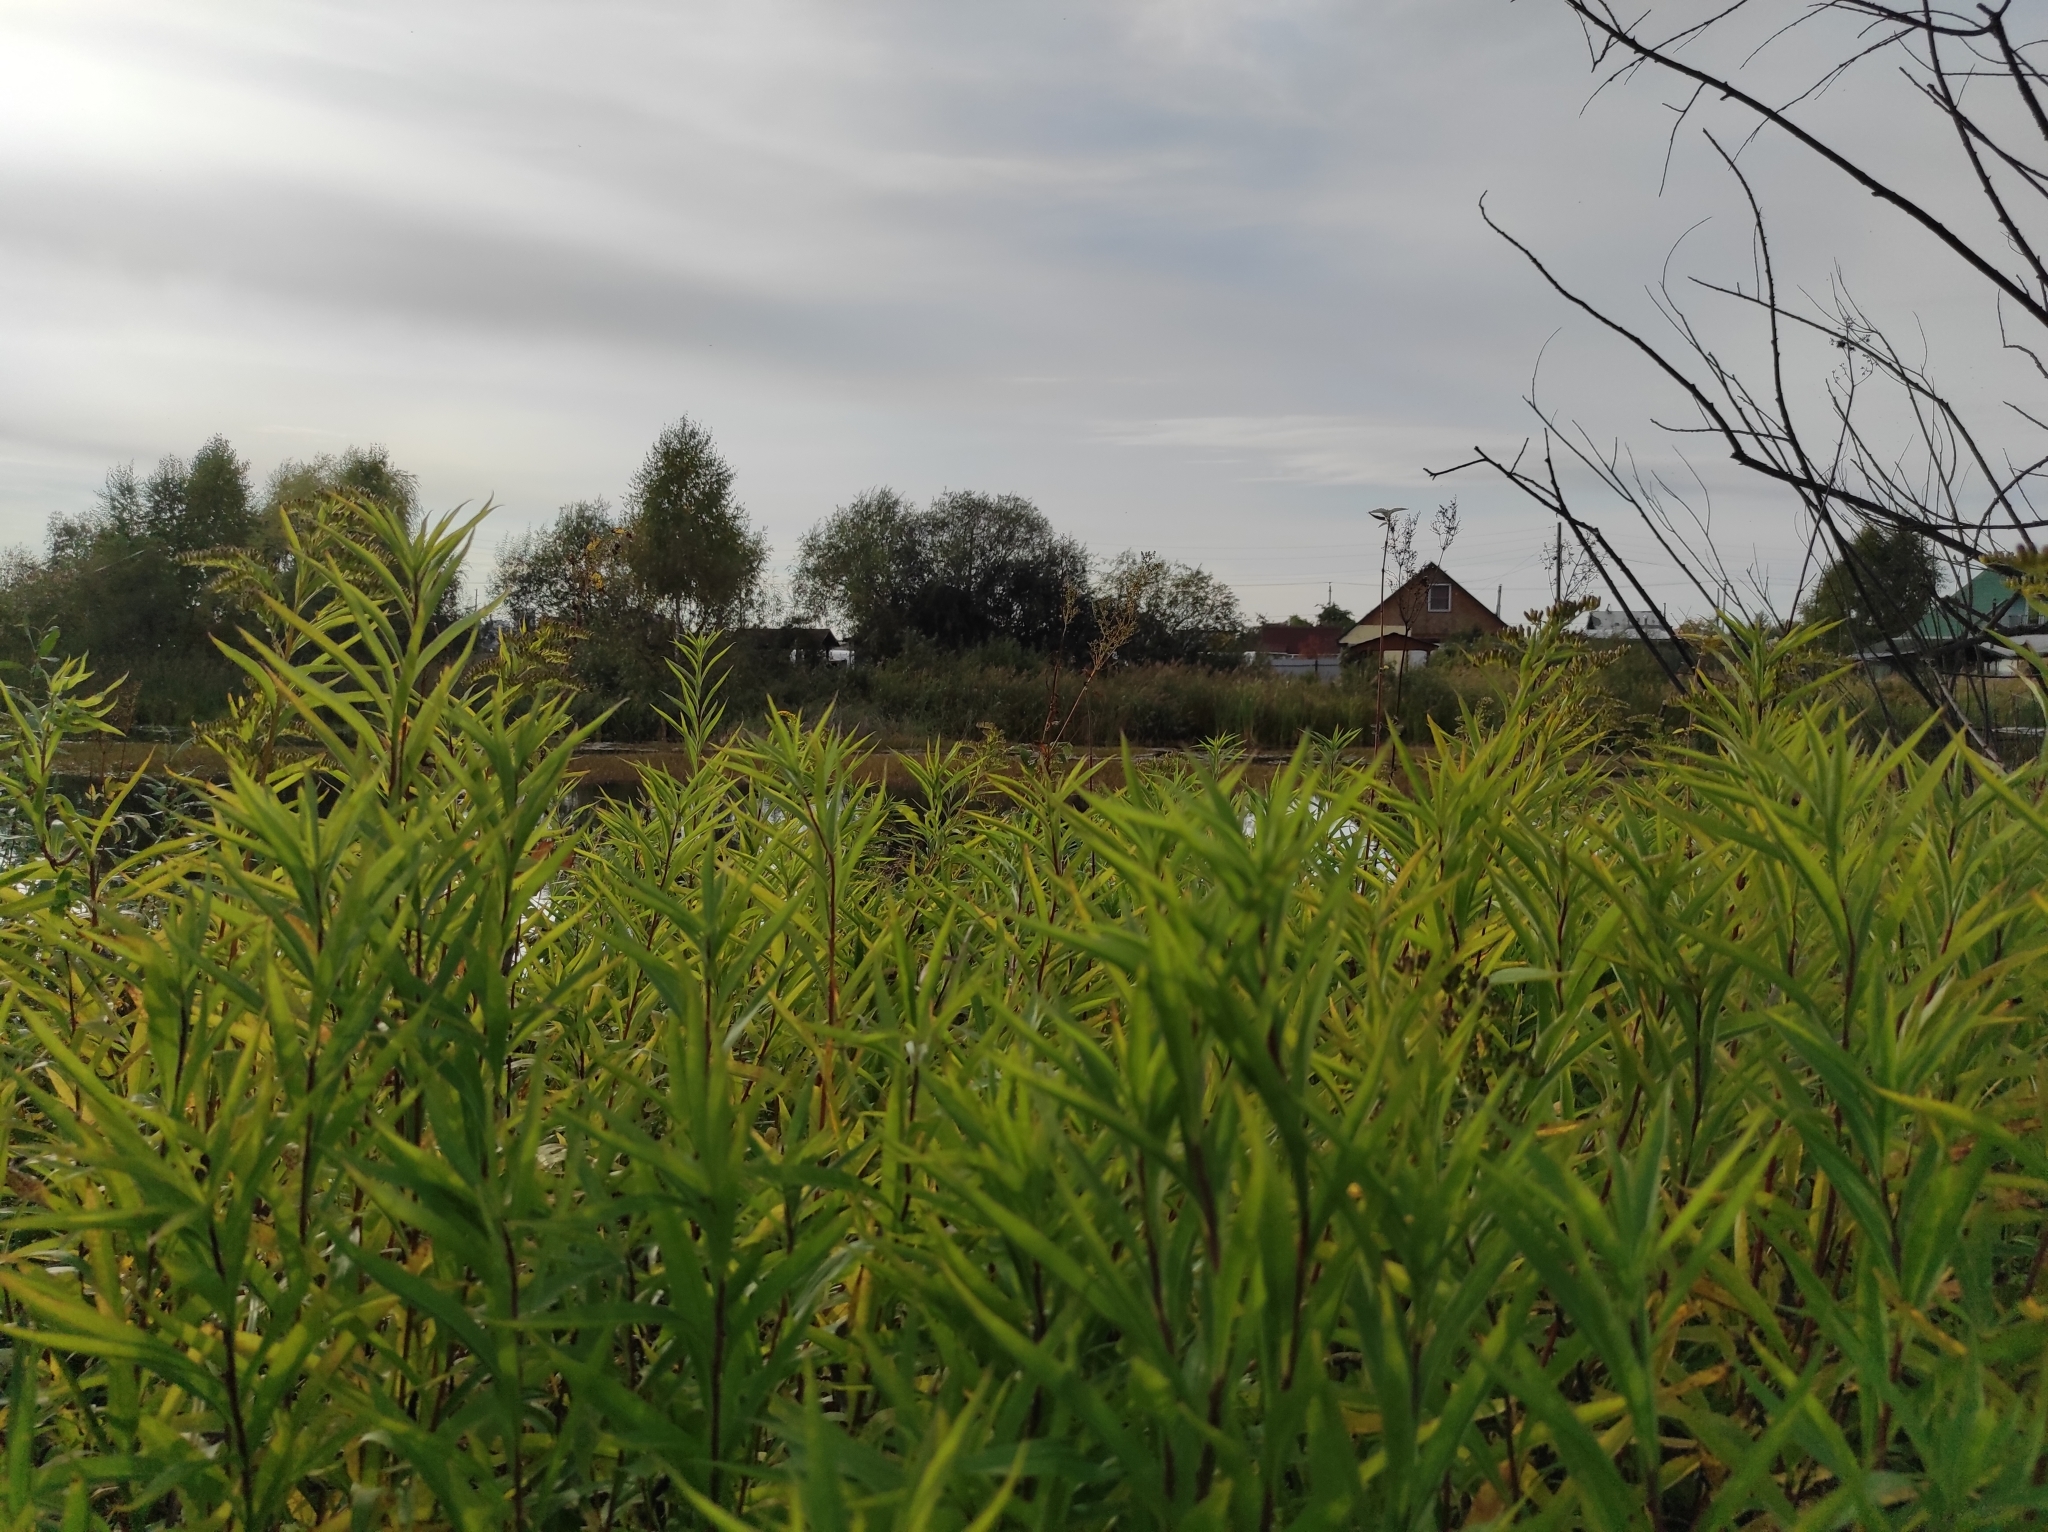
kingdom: Plantae
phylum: Tracheophyta
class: Magnoliopsida
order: Asterales
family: Asteraceae
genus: Solidago
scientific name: Solidago gigantea
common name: Giant goldenrod
